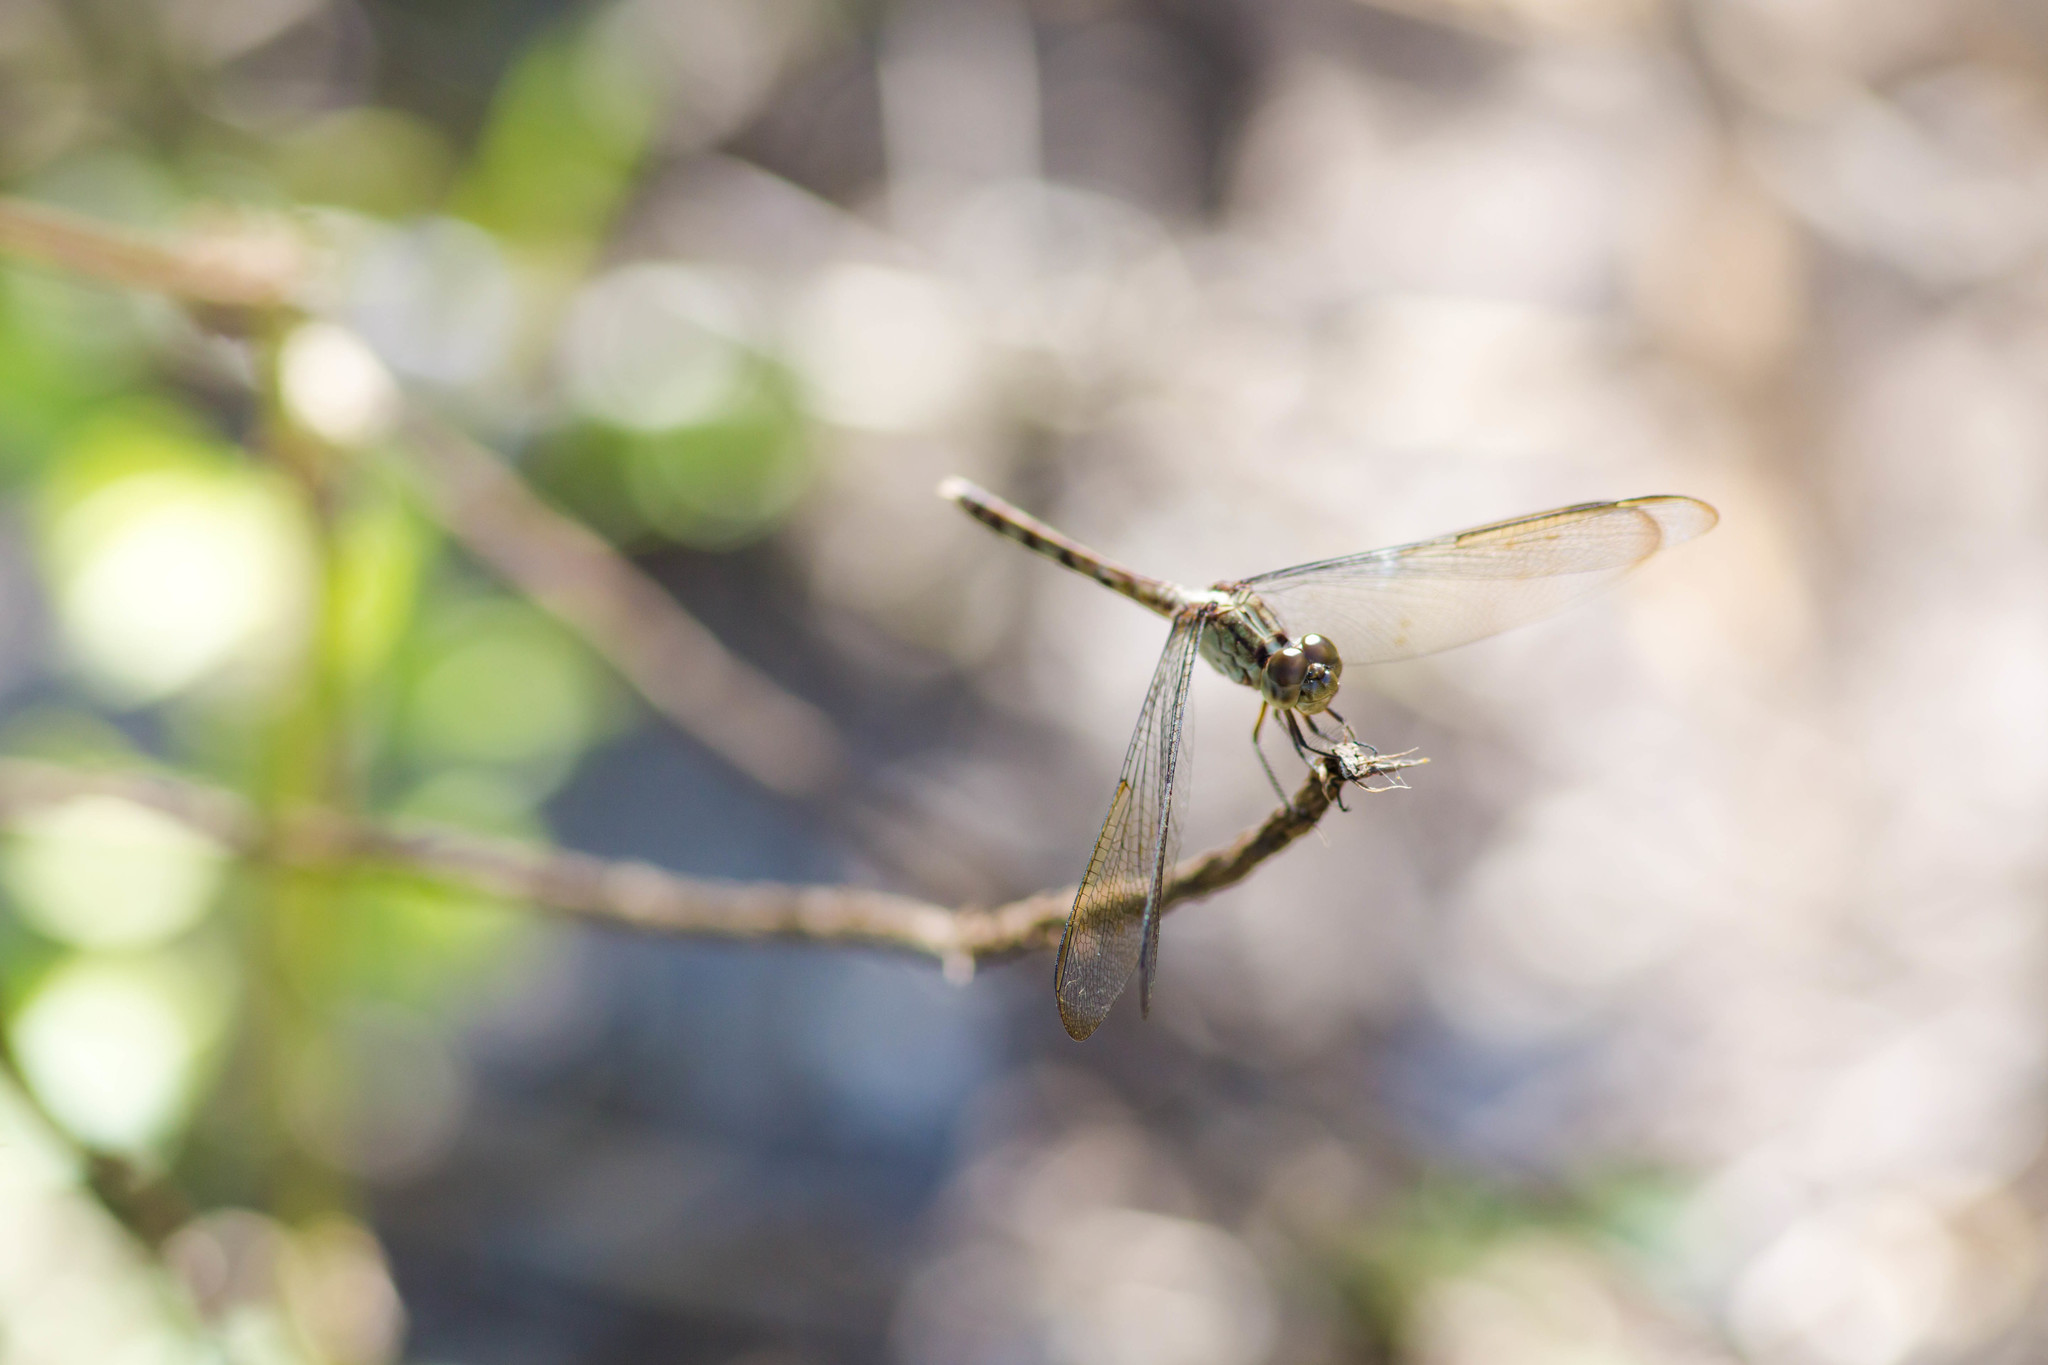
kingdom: Animalia
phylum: Arthropoda
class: Insecta
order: Odonata
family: Libellulidae
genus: Erythrodiplax
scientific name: Erythrodiplax umbrata
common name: Band-winged dragonlet
